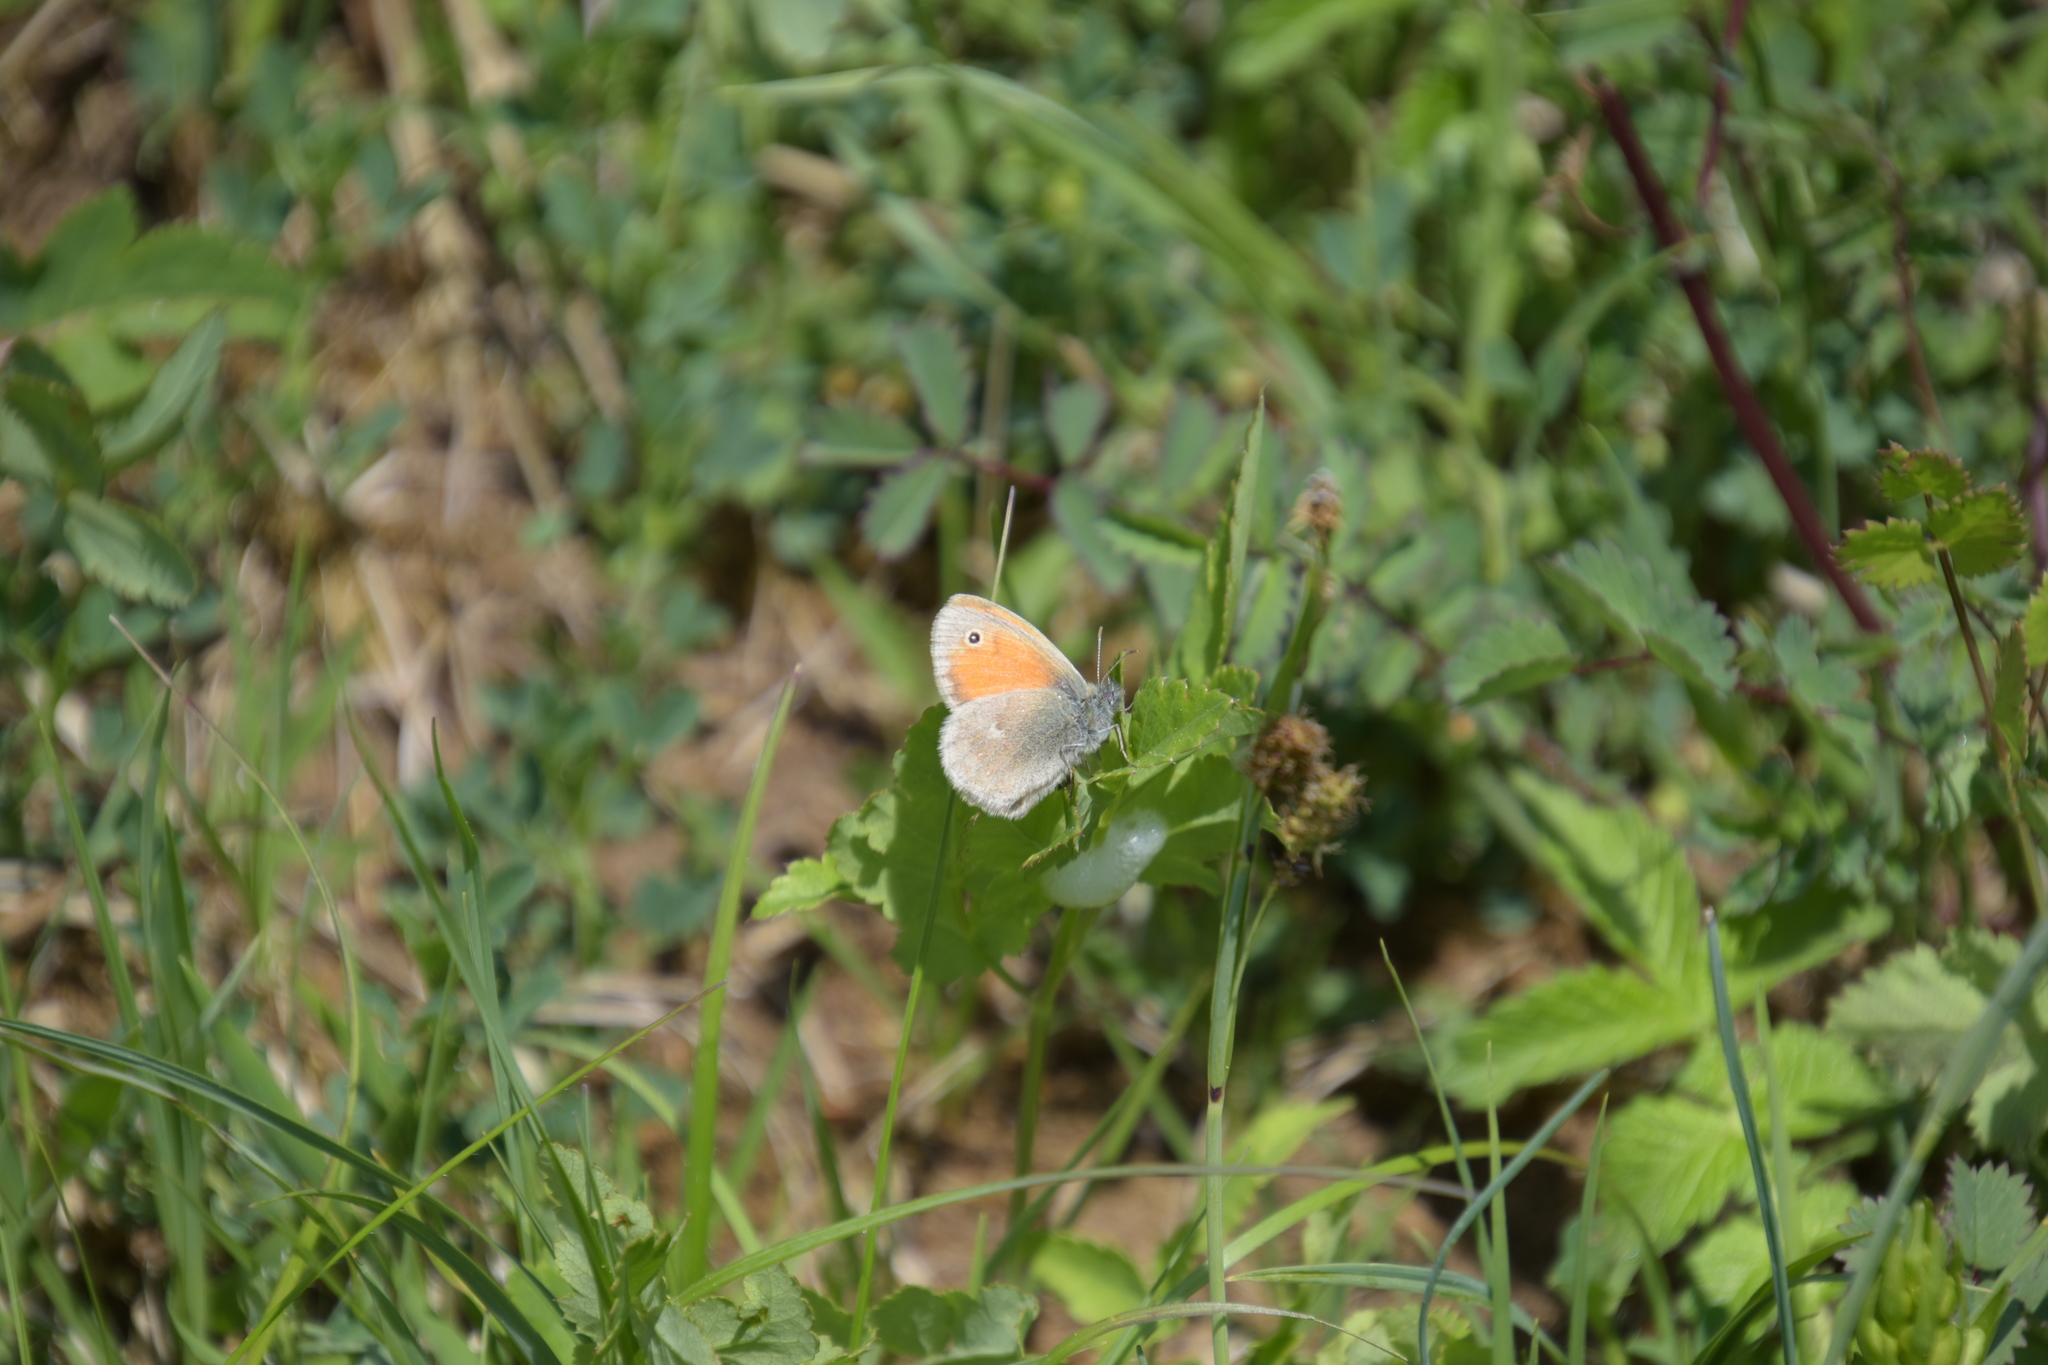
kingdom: Animalia
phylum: Arthropoda
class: Insecta
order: Lepidoptera
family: Nymphalidae
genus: Coenonympha
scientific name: Coenonympha pamphilus
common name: Small heath
